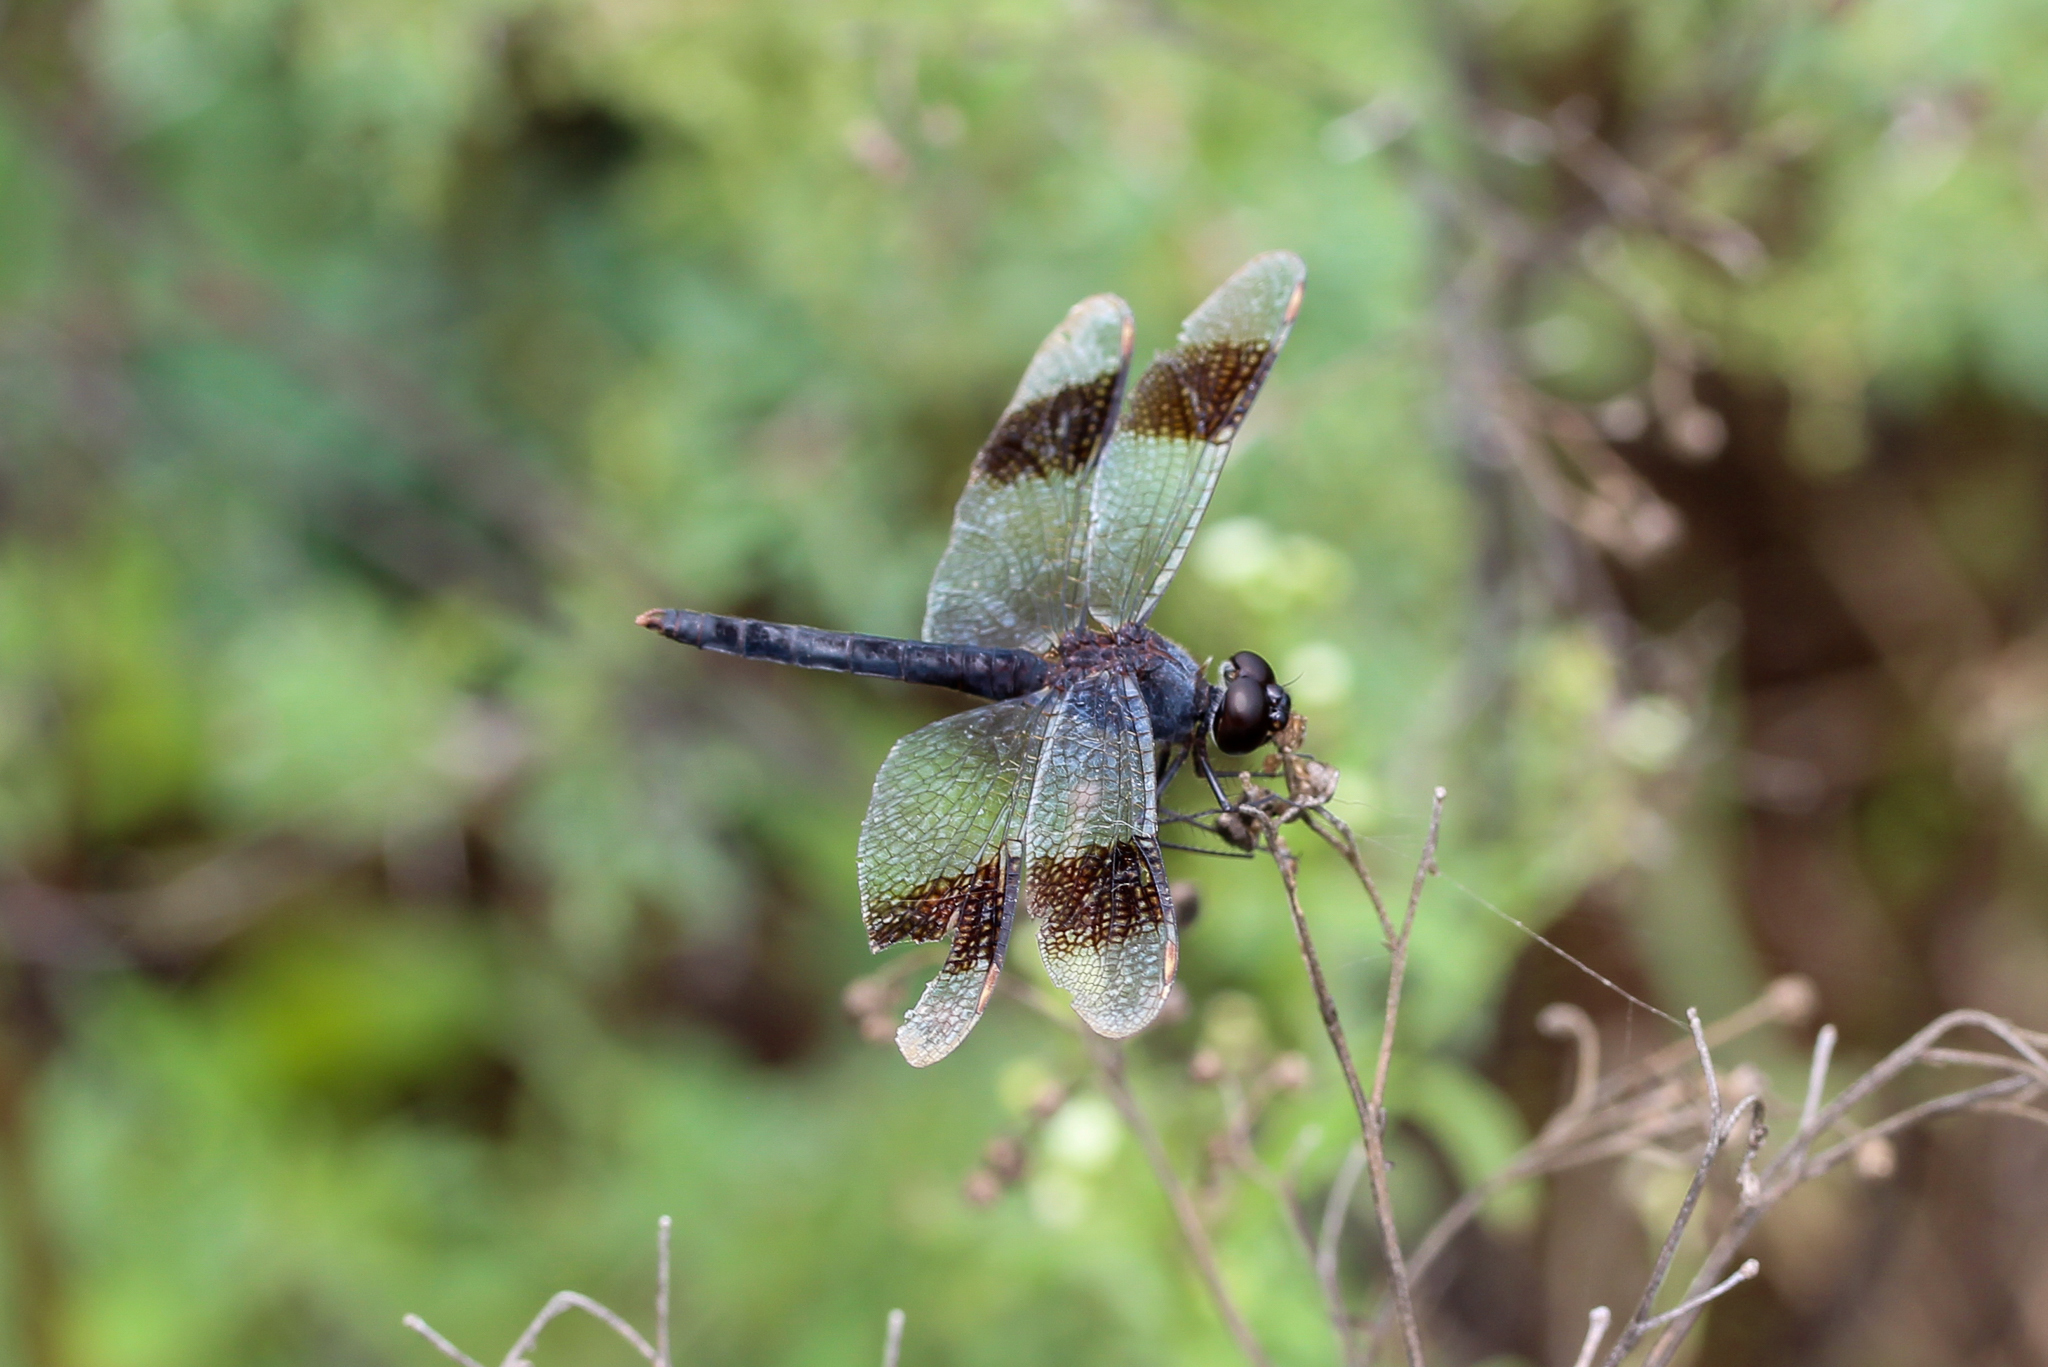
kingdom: Animalia
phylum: Arthropoda
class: Insecta
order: Odonata
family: Libellulidae
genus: Brachythemis
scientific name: Brachythemis leucosticta
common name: Banded groundling
